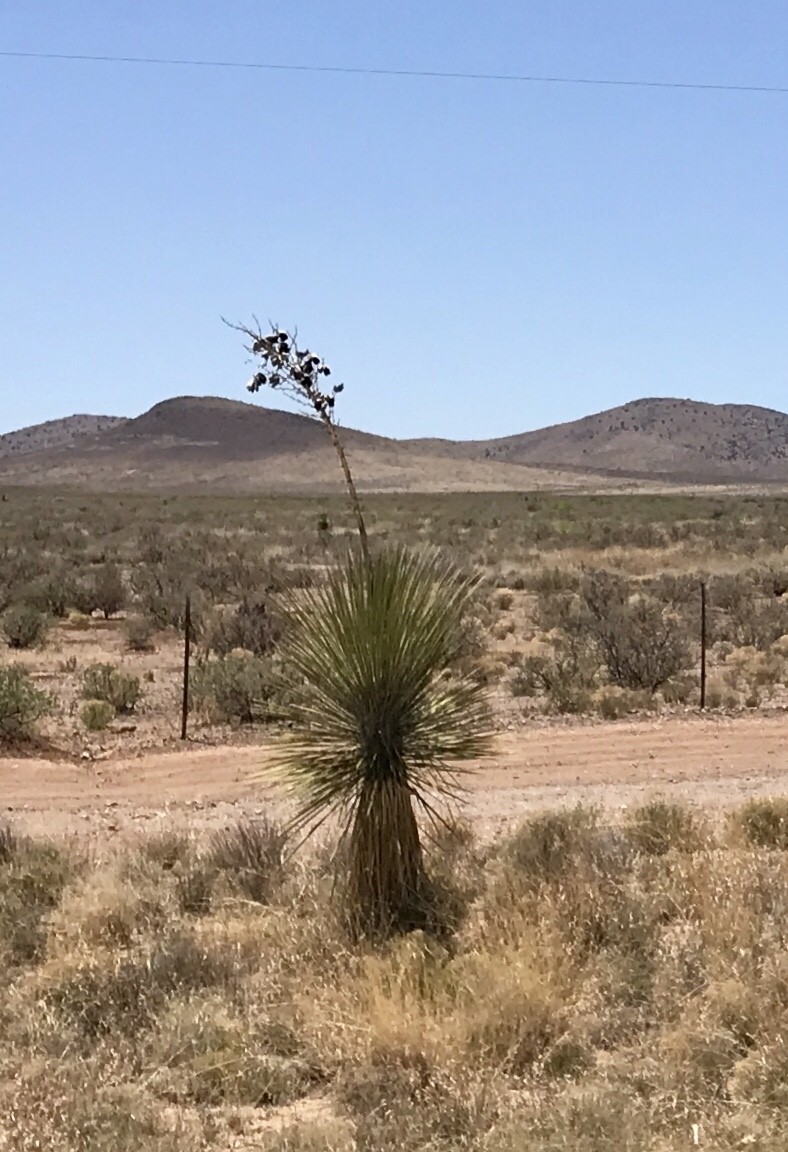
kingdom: Plantae
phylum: Tracheophyta
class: Liliopsida
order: Asparagales
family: Asparagaceae
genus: Yucca
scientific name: Yucca elata
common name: Palmella
